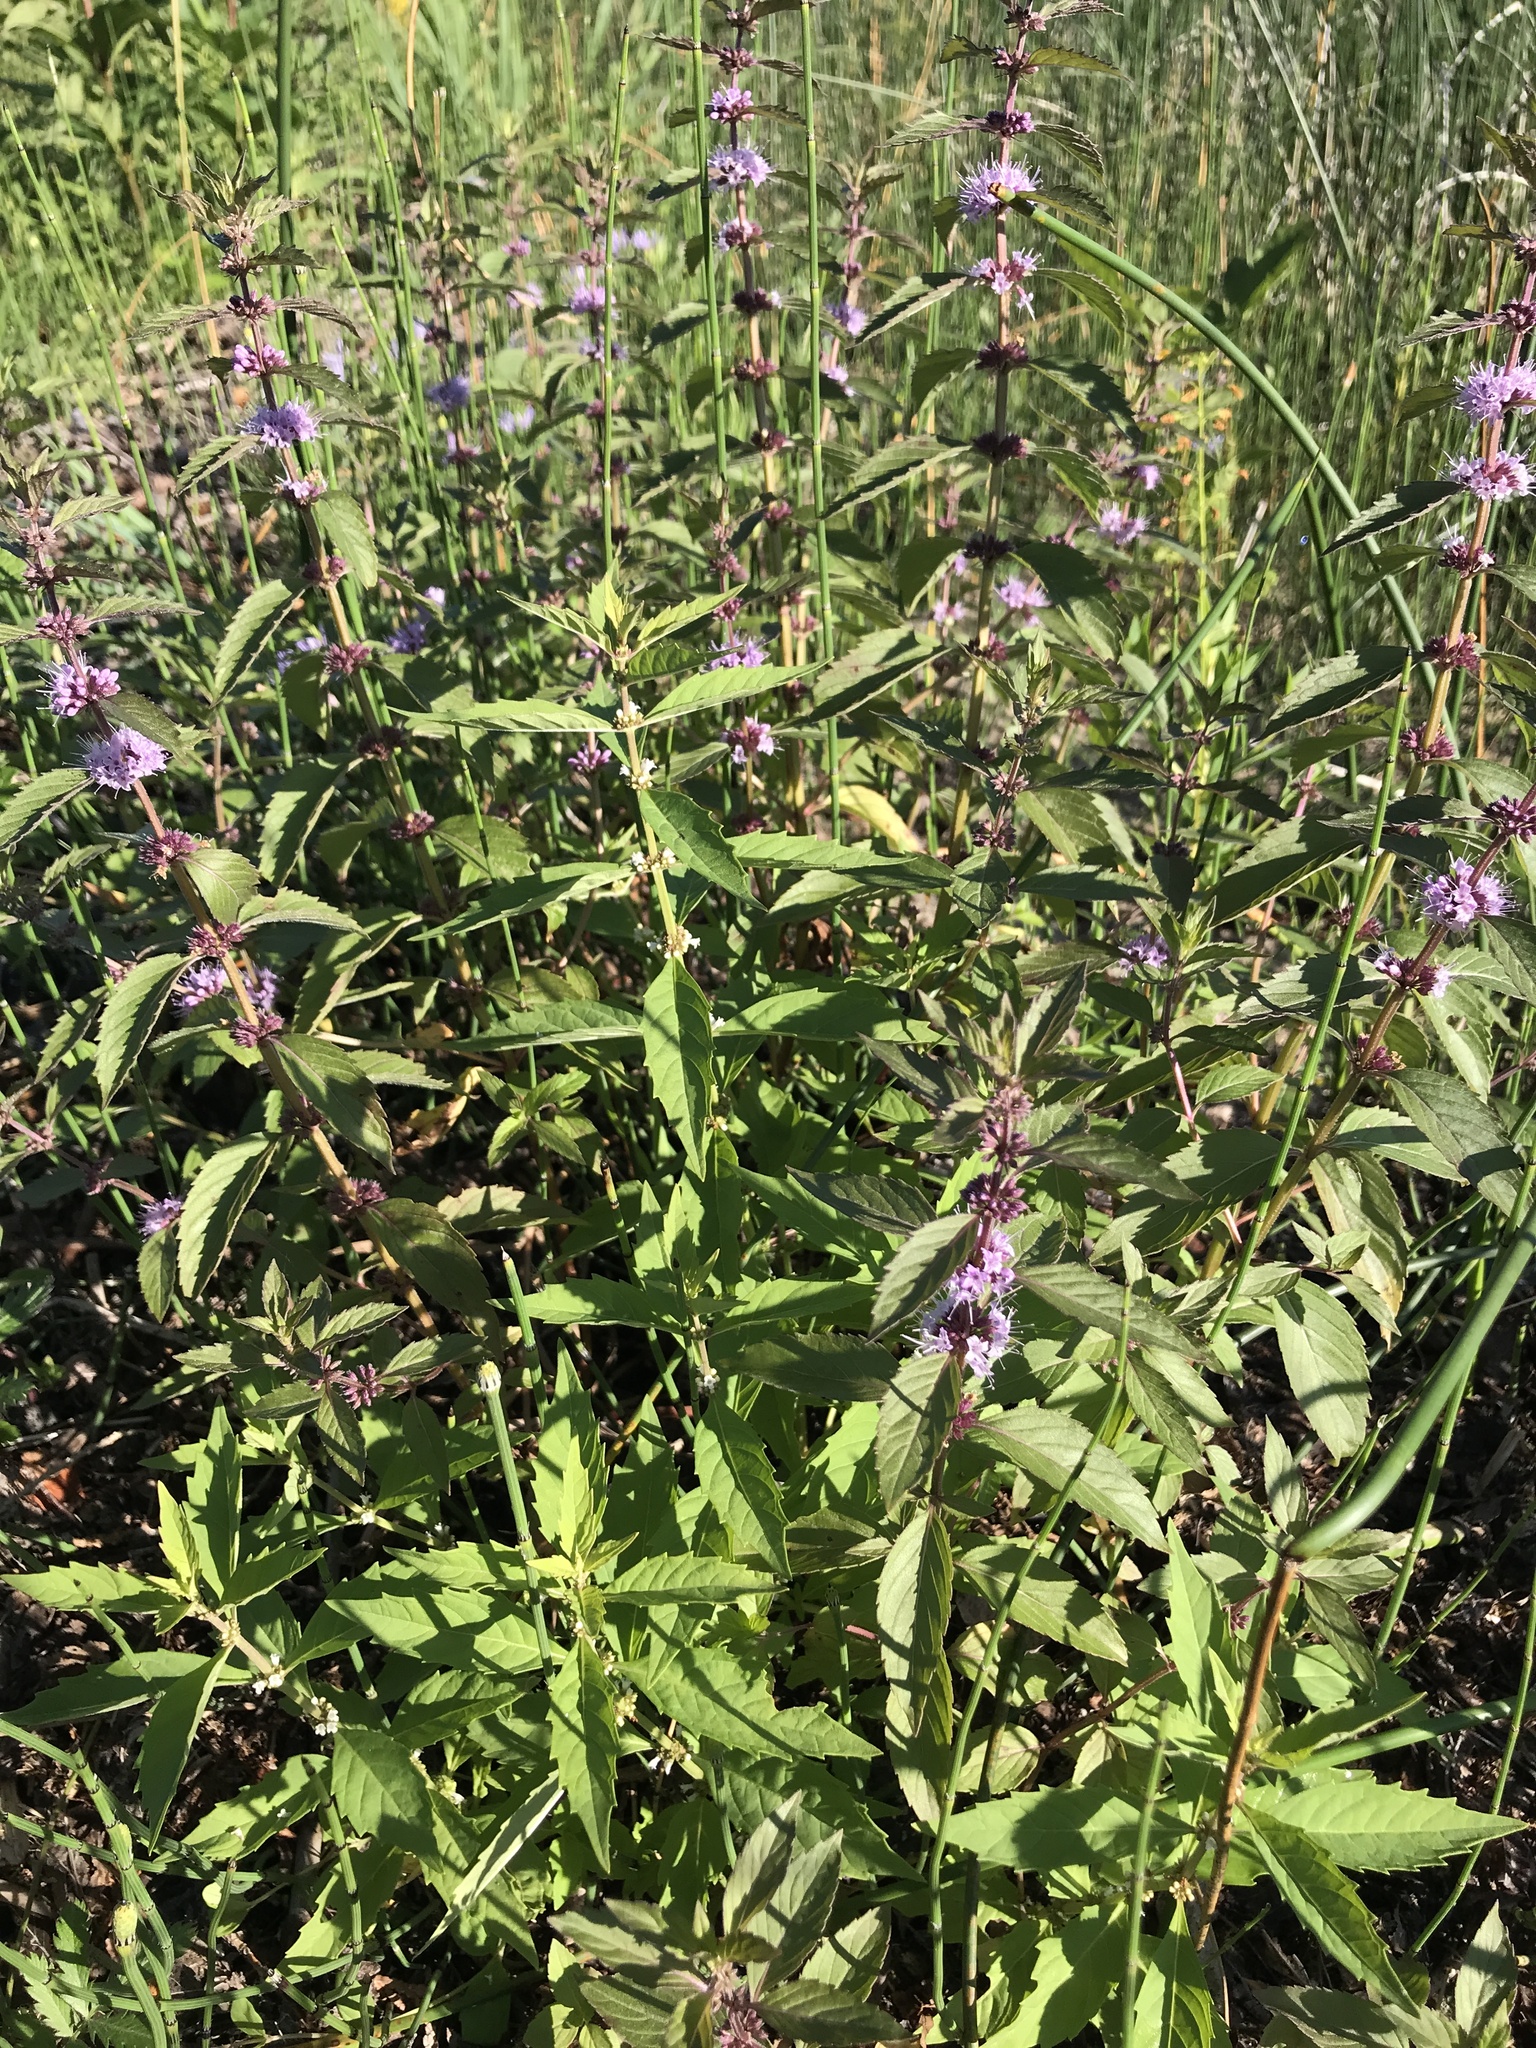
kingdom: Plantae
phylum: Tracheophyta
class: Magnoliopsida
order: Lamiales
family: Lamiaceae
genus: Mentha
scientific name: Mentha canadensis
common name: American corn mint
